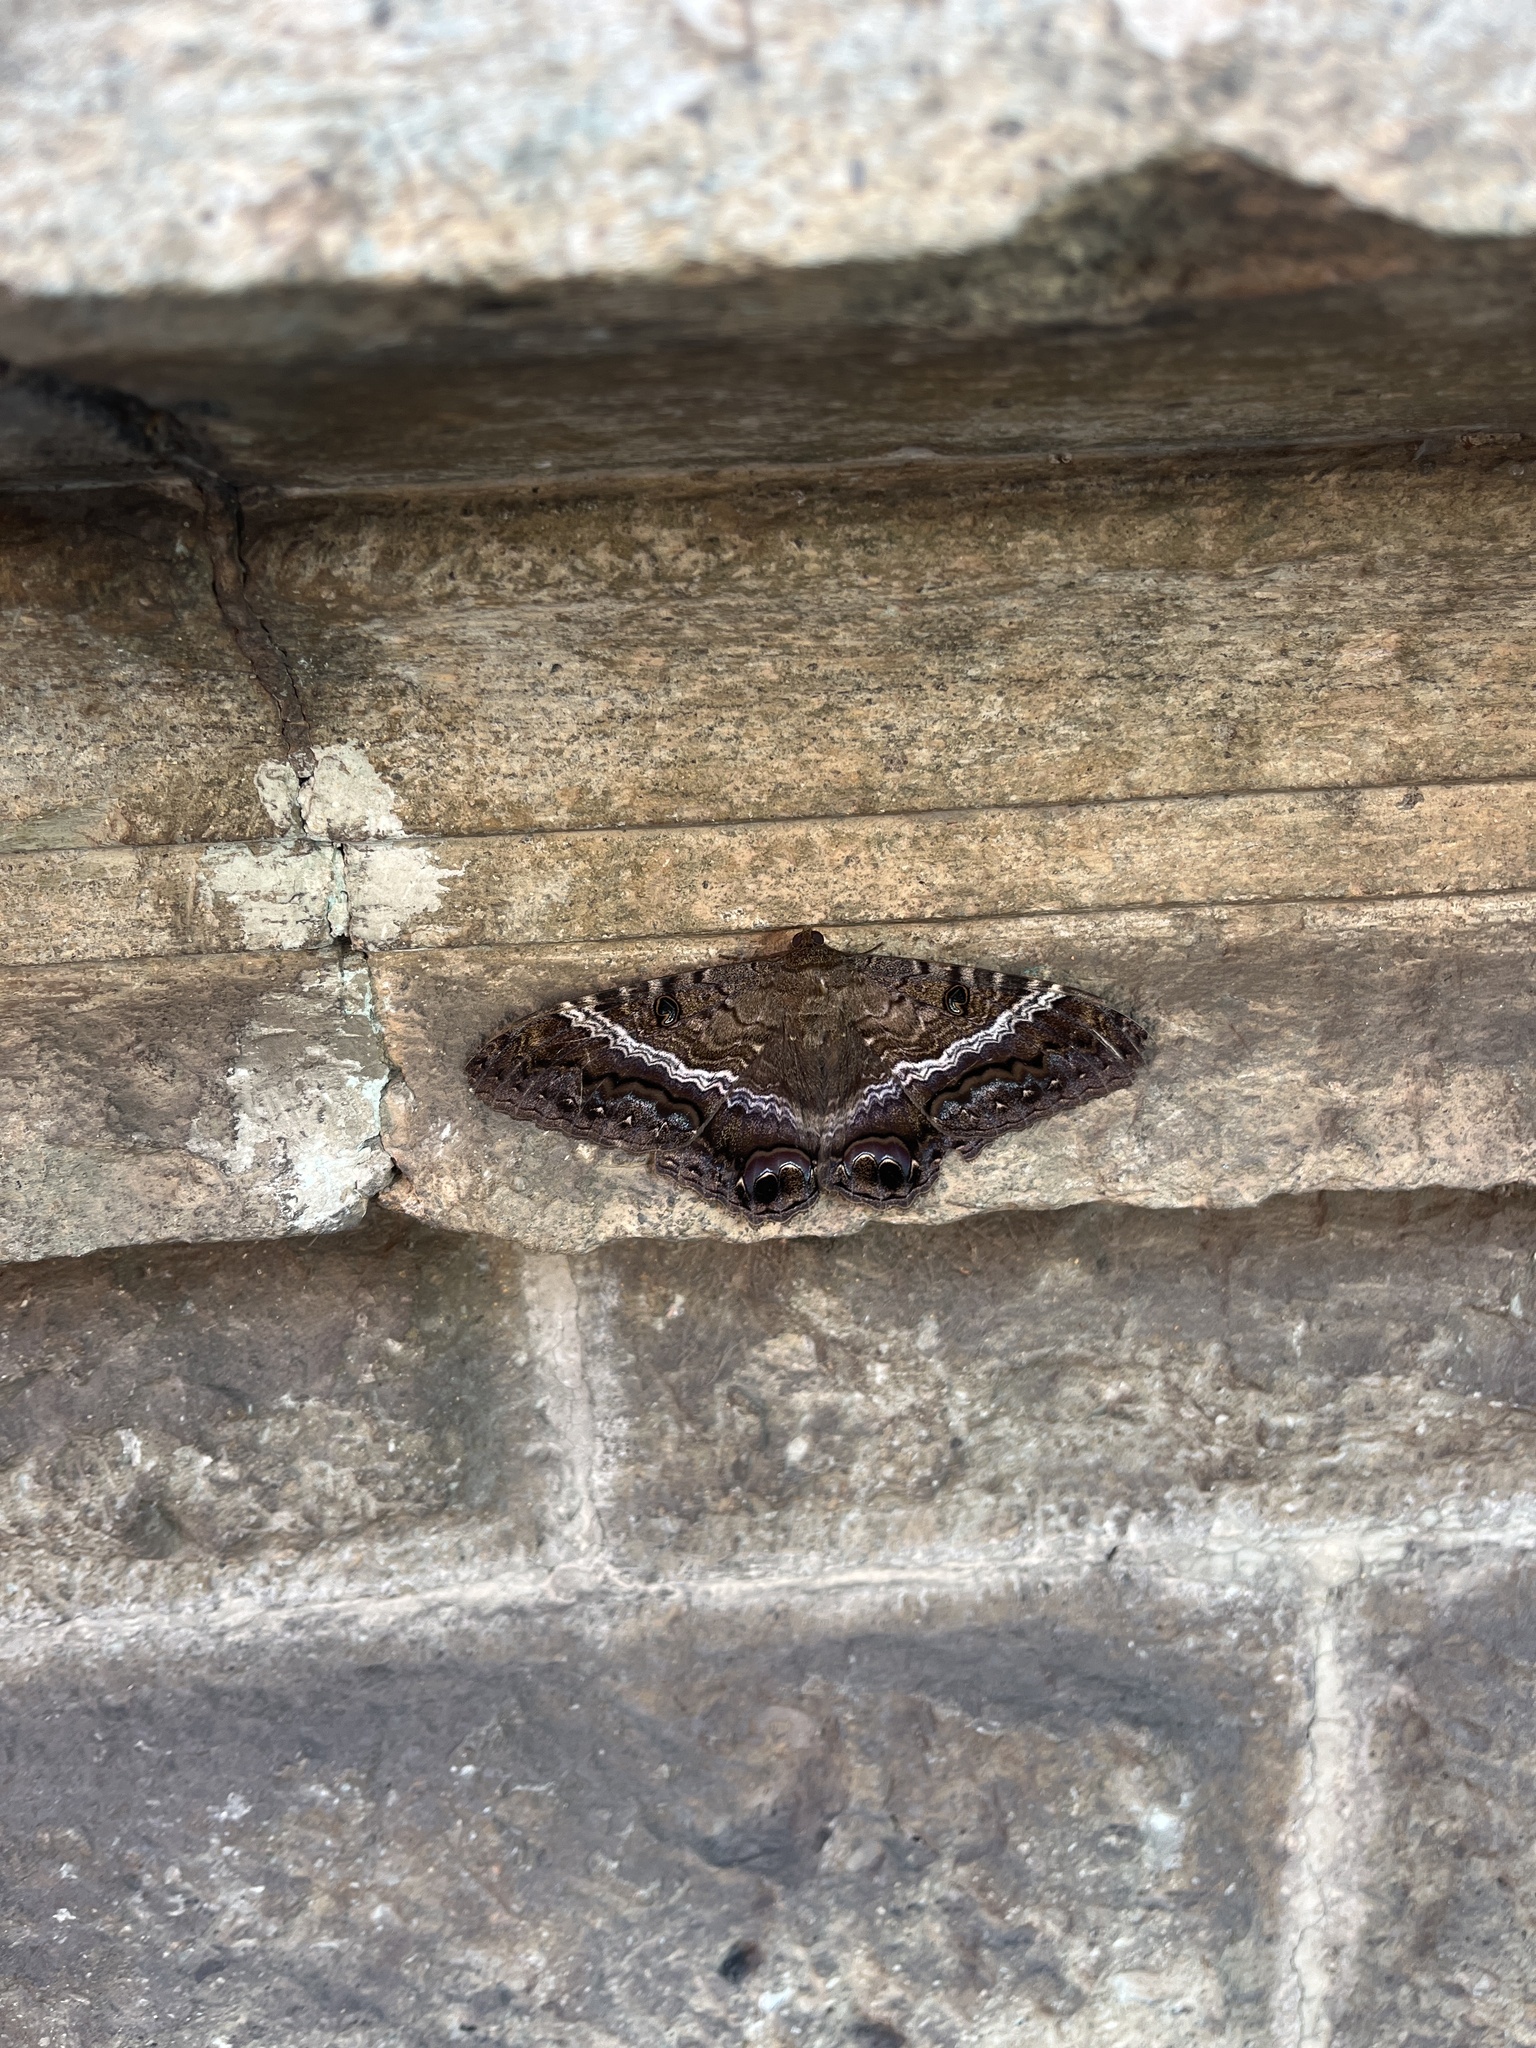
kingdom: Animalia
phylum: Arthropoda
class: Insecta
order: Lepidoptera
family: Erebidae
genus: Ascalapha
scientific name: Ascalapha odorata
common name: Black witch
